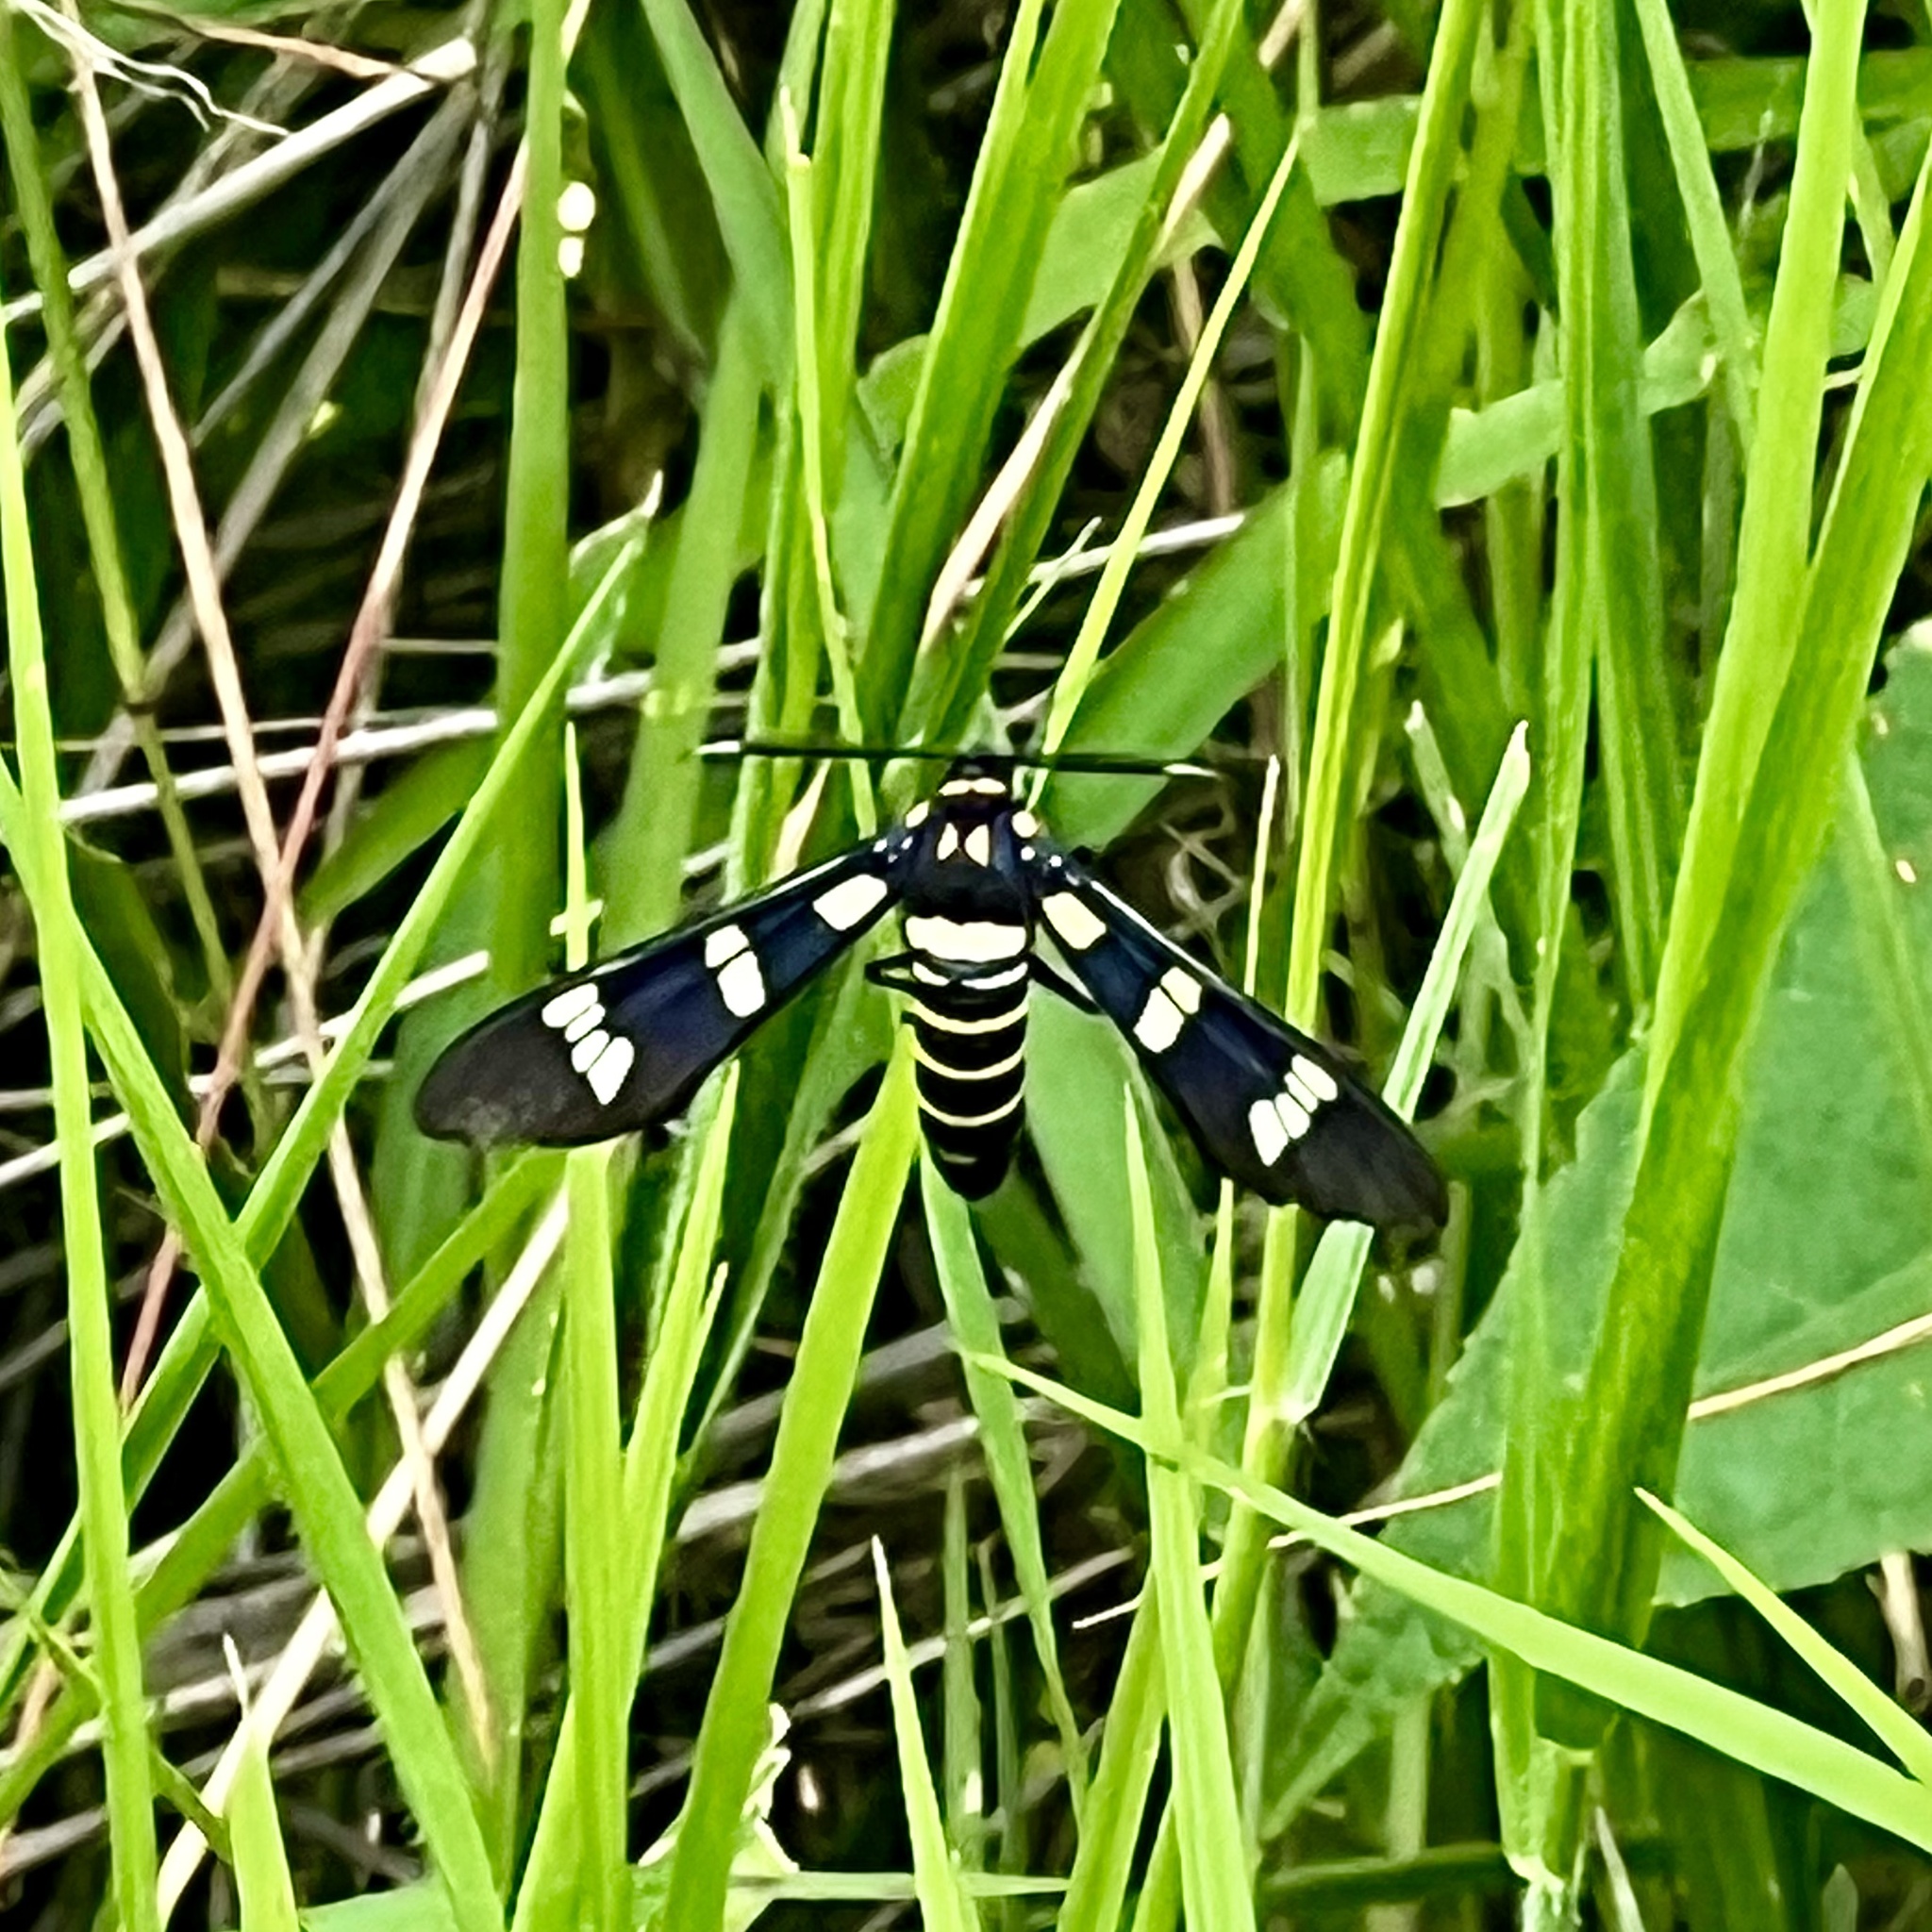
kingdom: Animalia
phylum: Arthropoda
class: Insecta
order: Lepidoptera
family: Erebidae
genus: Syntomeida
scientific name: Syntomeida melanthus
